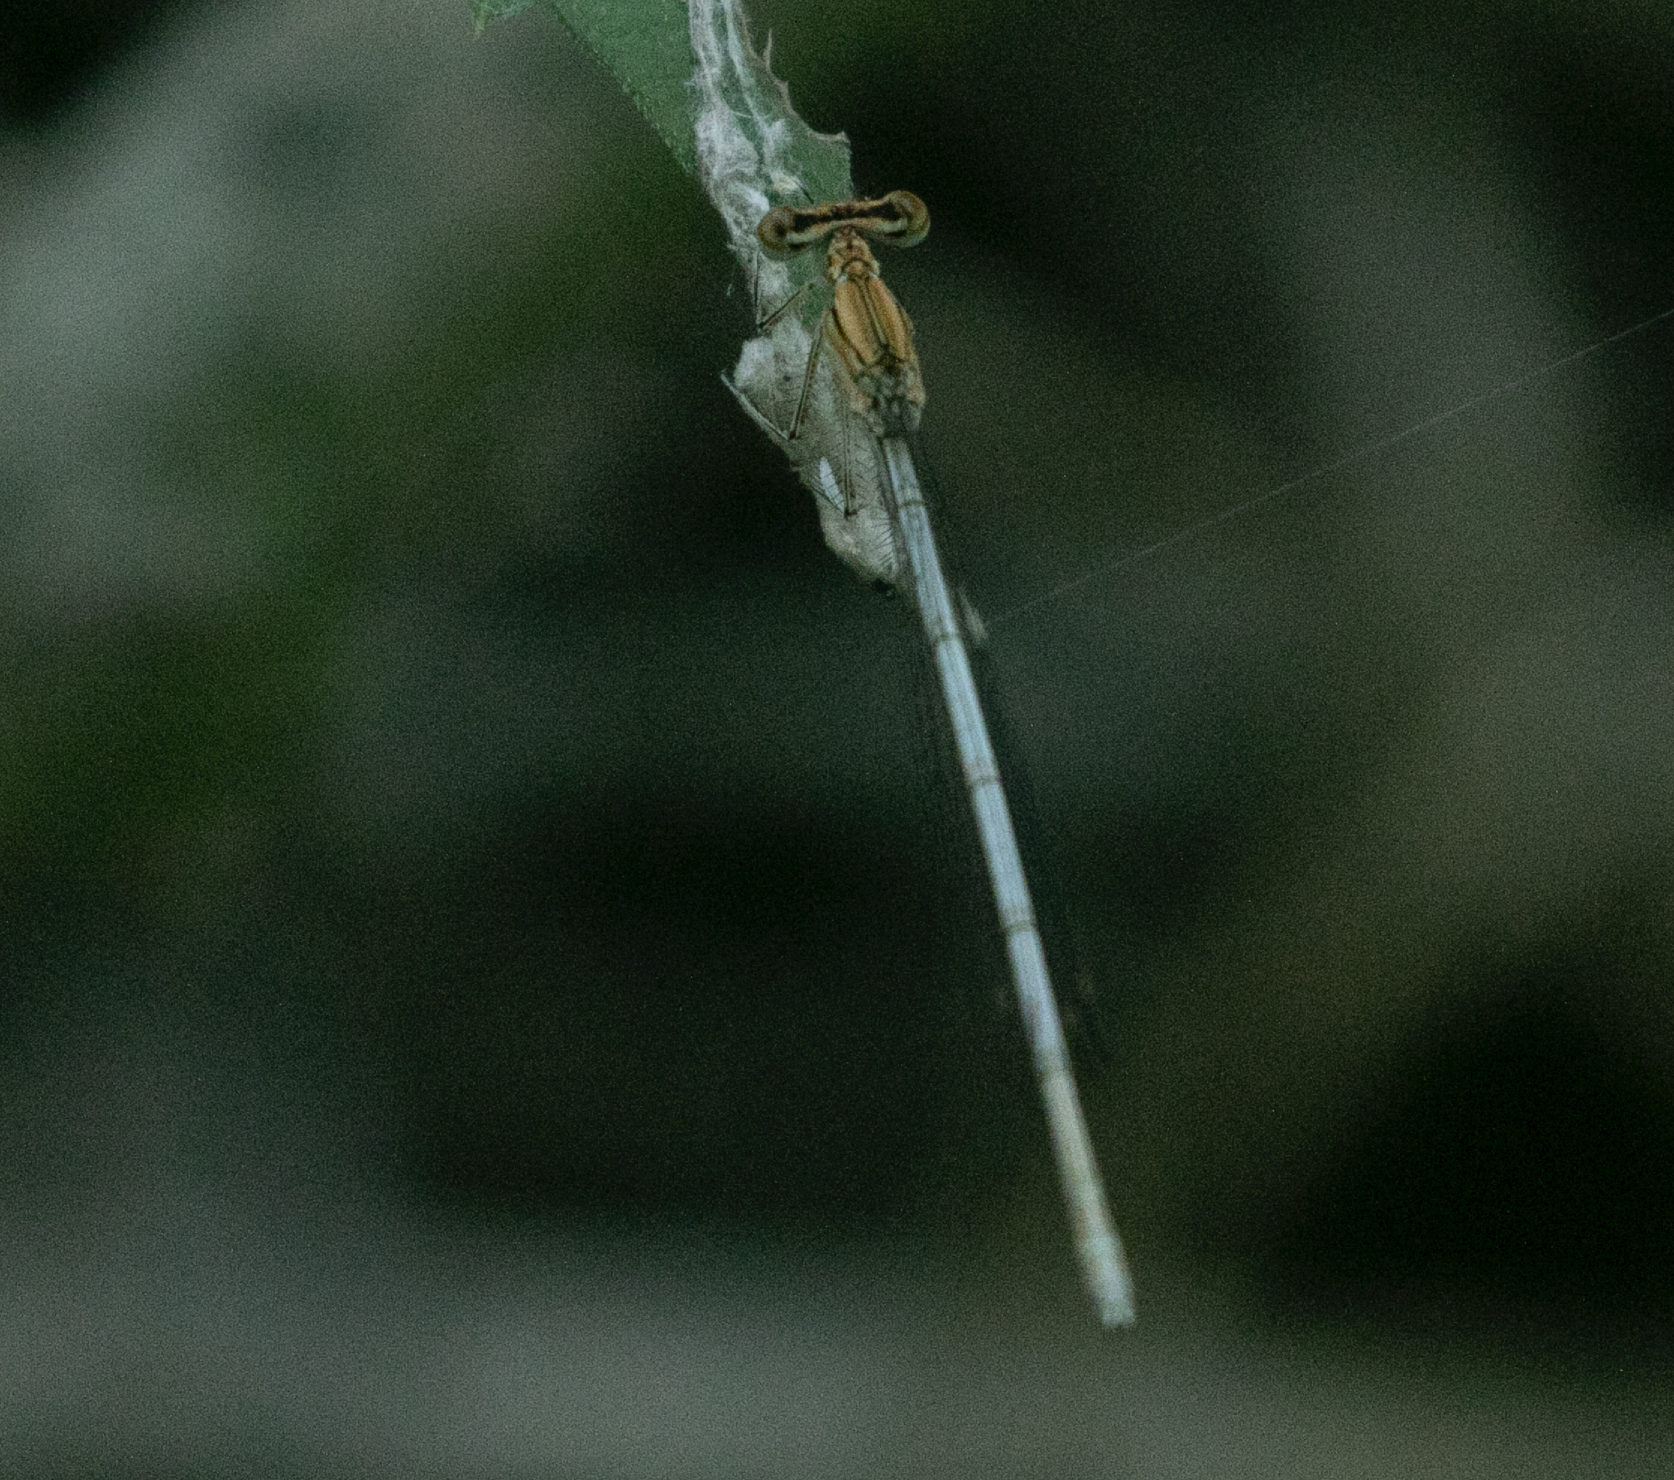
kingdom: Animalia
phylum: Arthropoda
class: Insecta
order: Odonata
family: Platycnemididae
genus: Platycnemis
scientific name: Platycnemis pennipes
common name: White-legged damselfly
